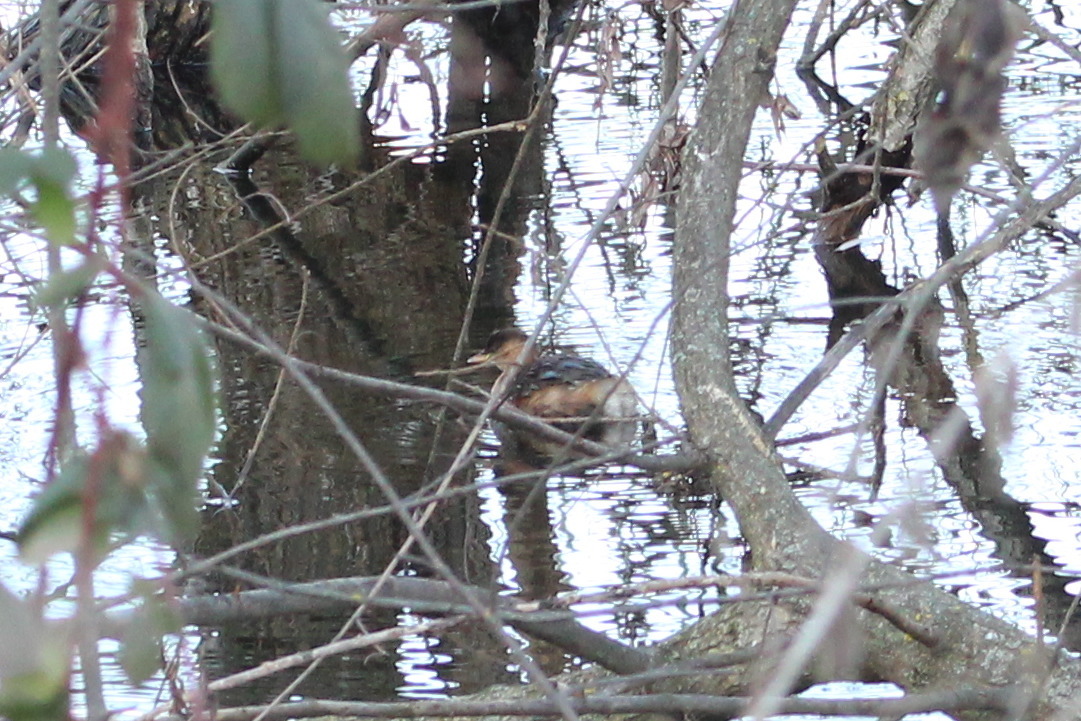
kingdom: Animalia
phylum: Chordata
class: Aves
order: Podicipediformes
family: Podicipedidae
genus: Tachybaptus
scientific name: Tachybaptus ruficollis
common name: Little grebe
